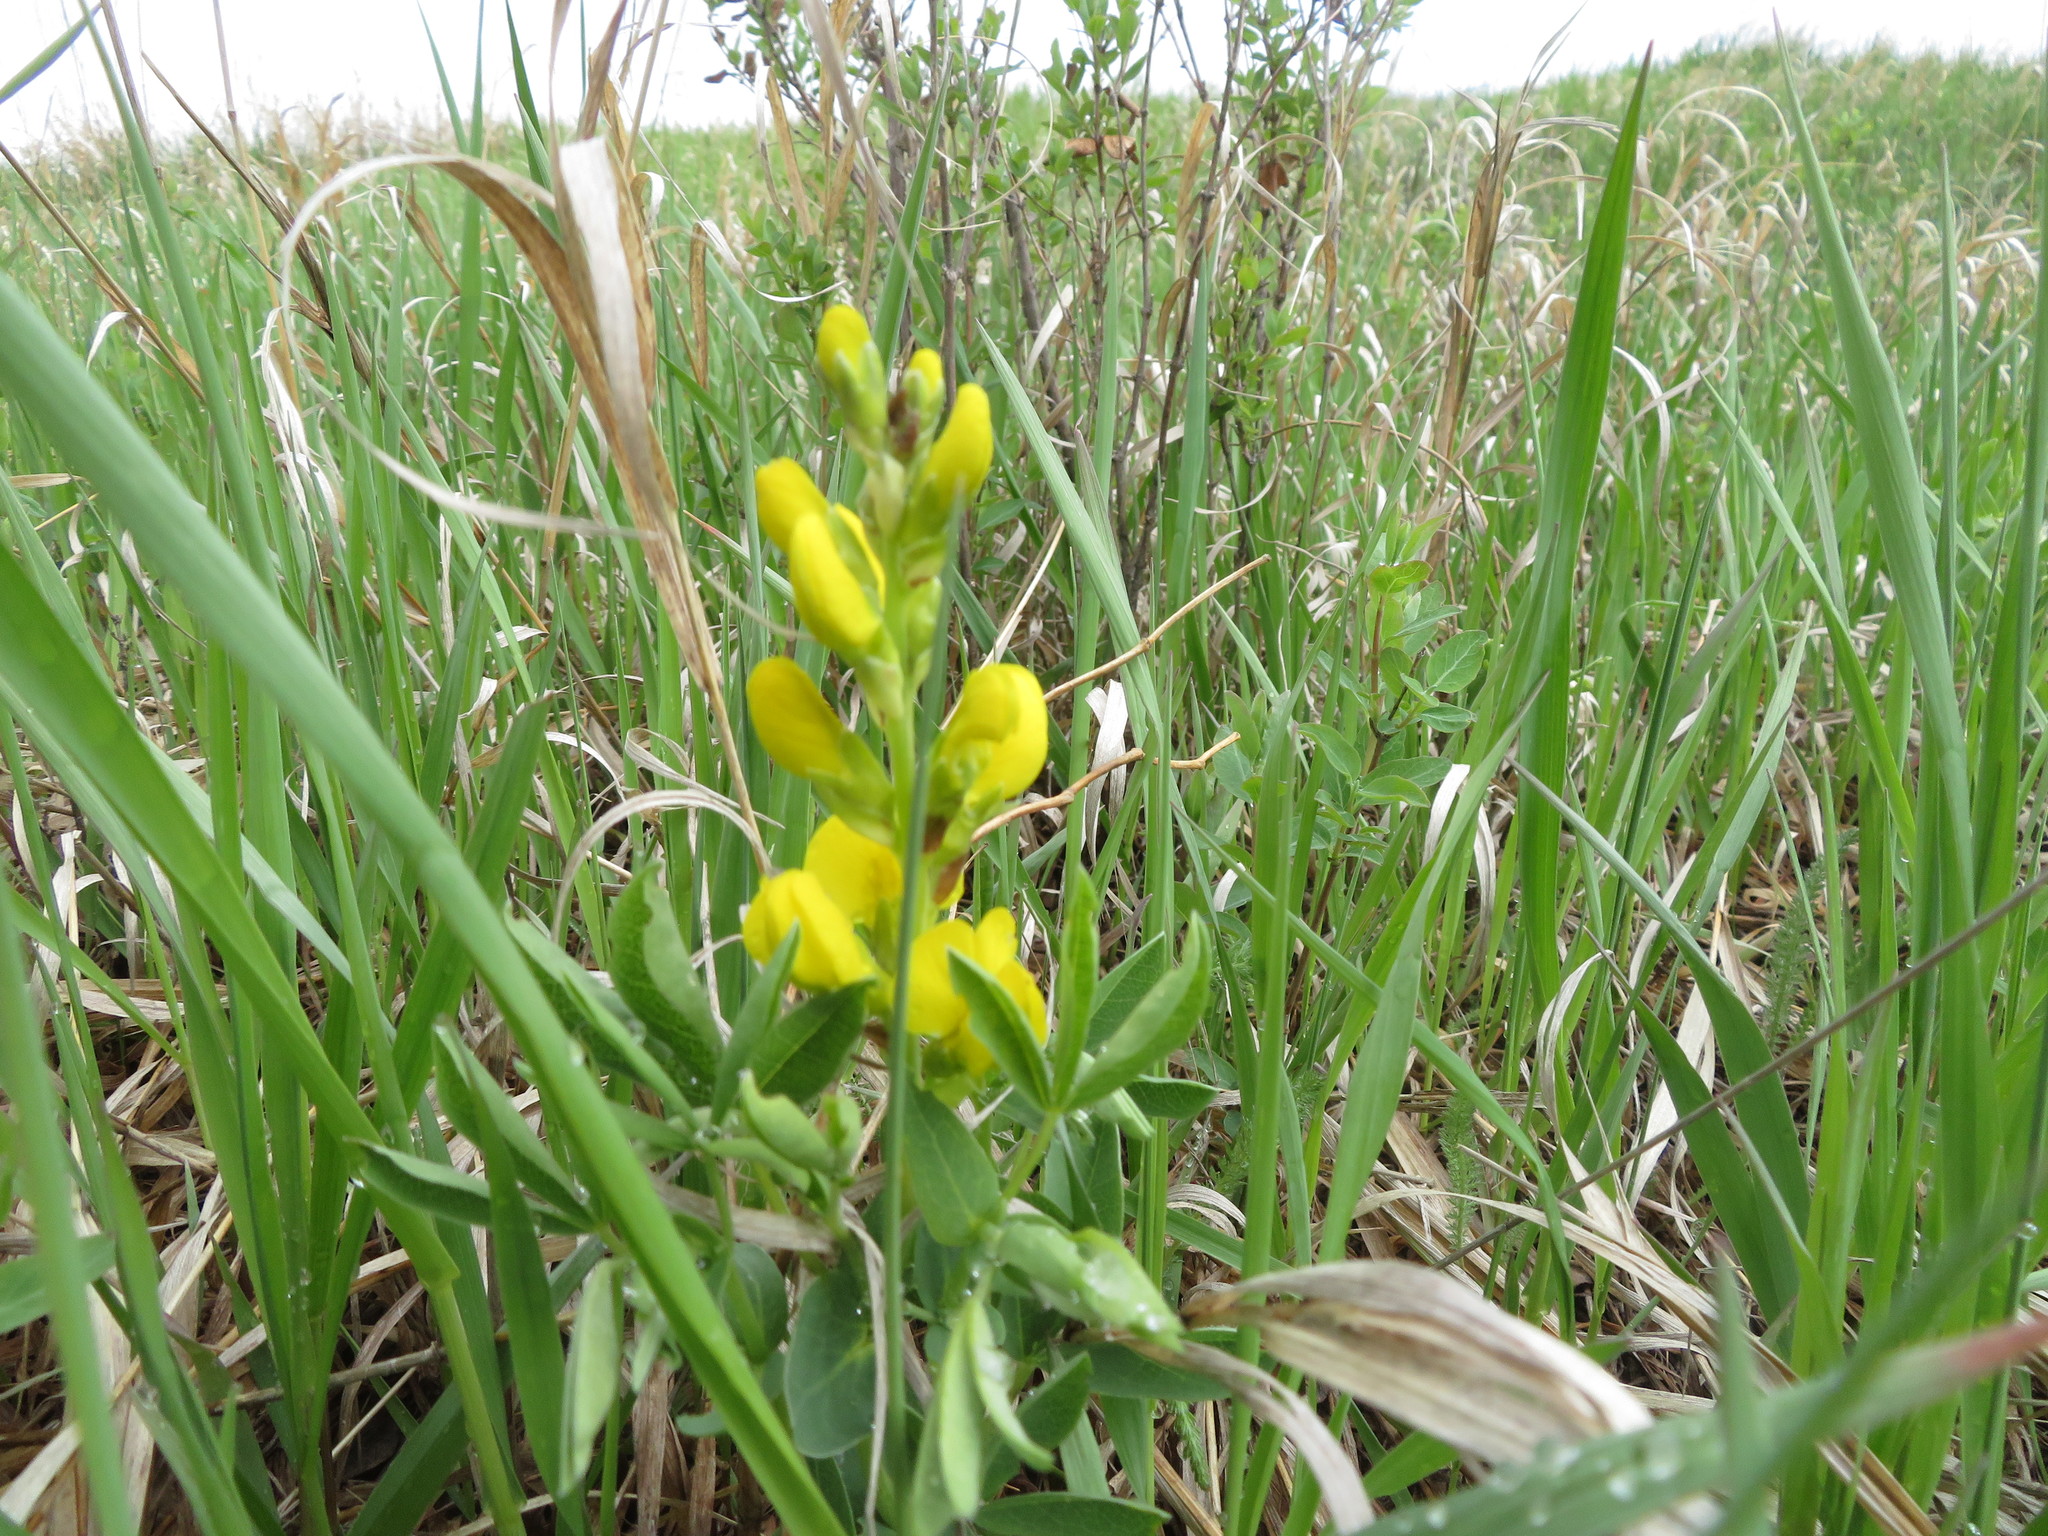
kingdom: Plantae
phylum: Tracheophyta
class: Magnoliopsida
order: Fabales
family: Fabaceae
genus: Thermopsis
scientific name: Thermopsis rhombifolia
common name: Circle-pod-pea
